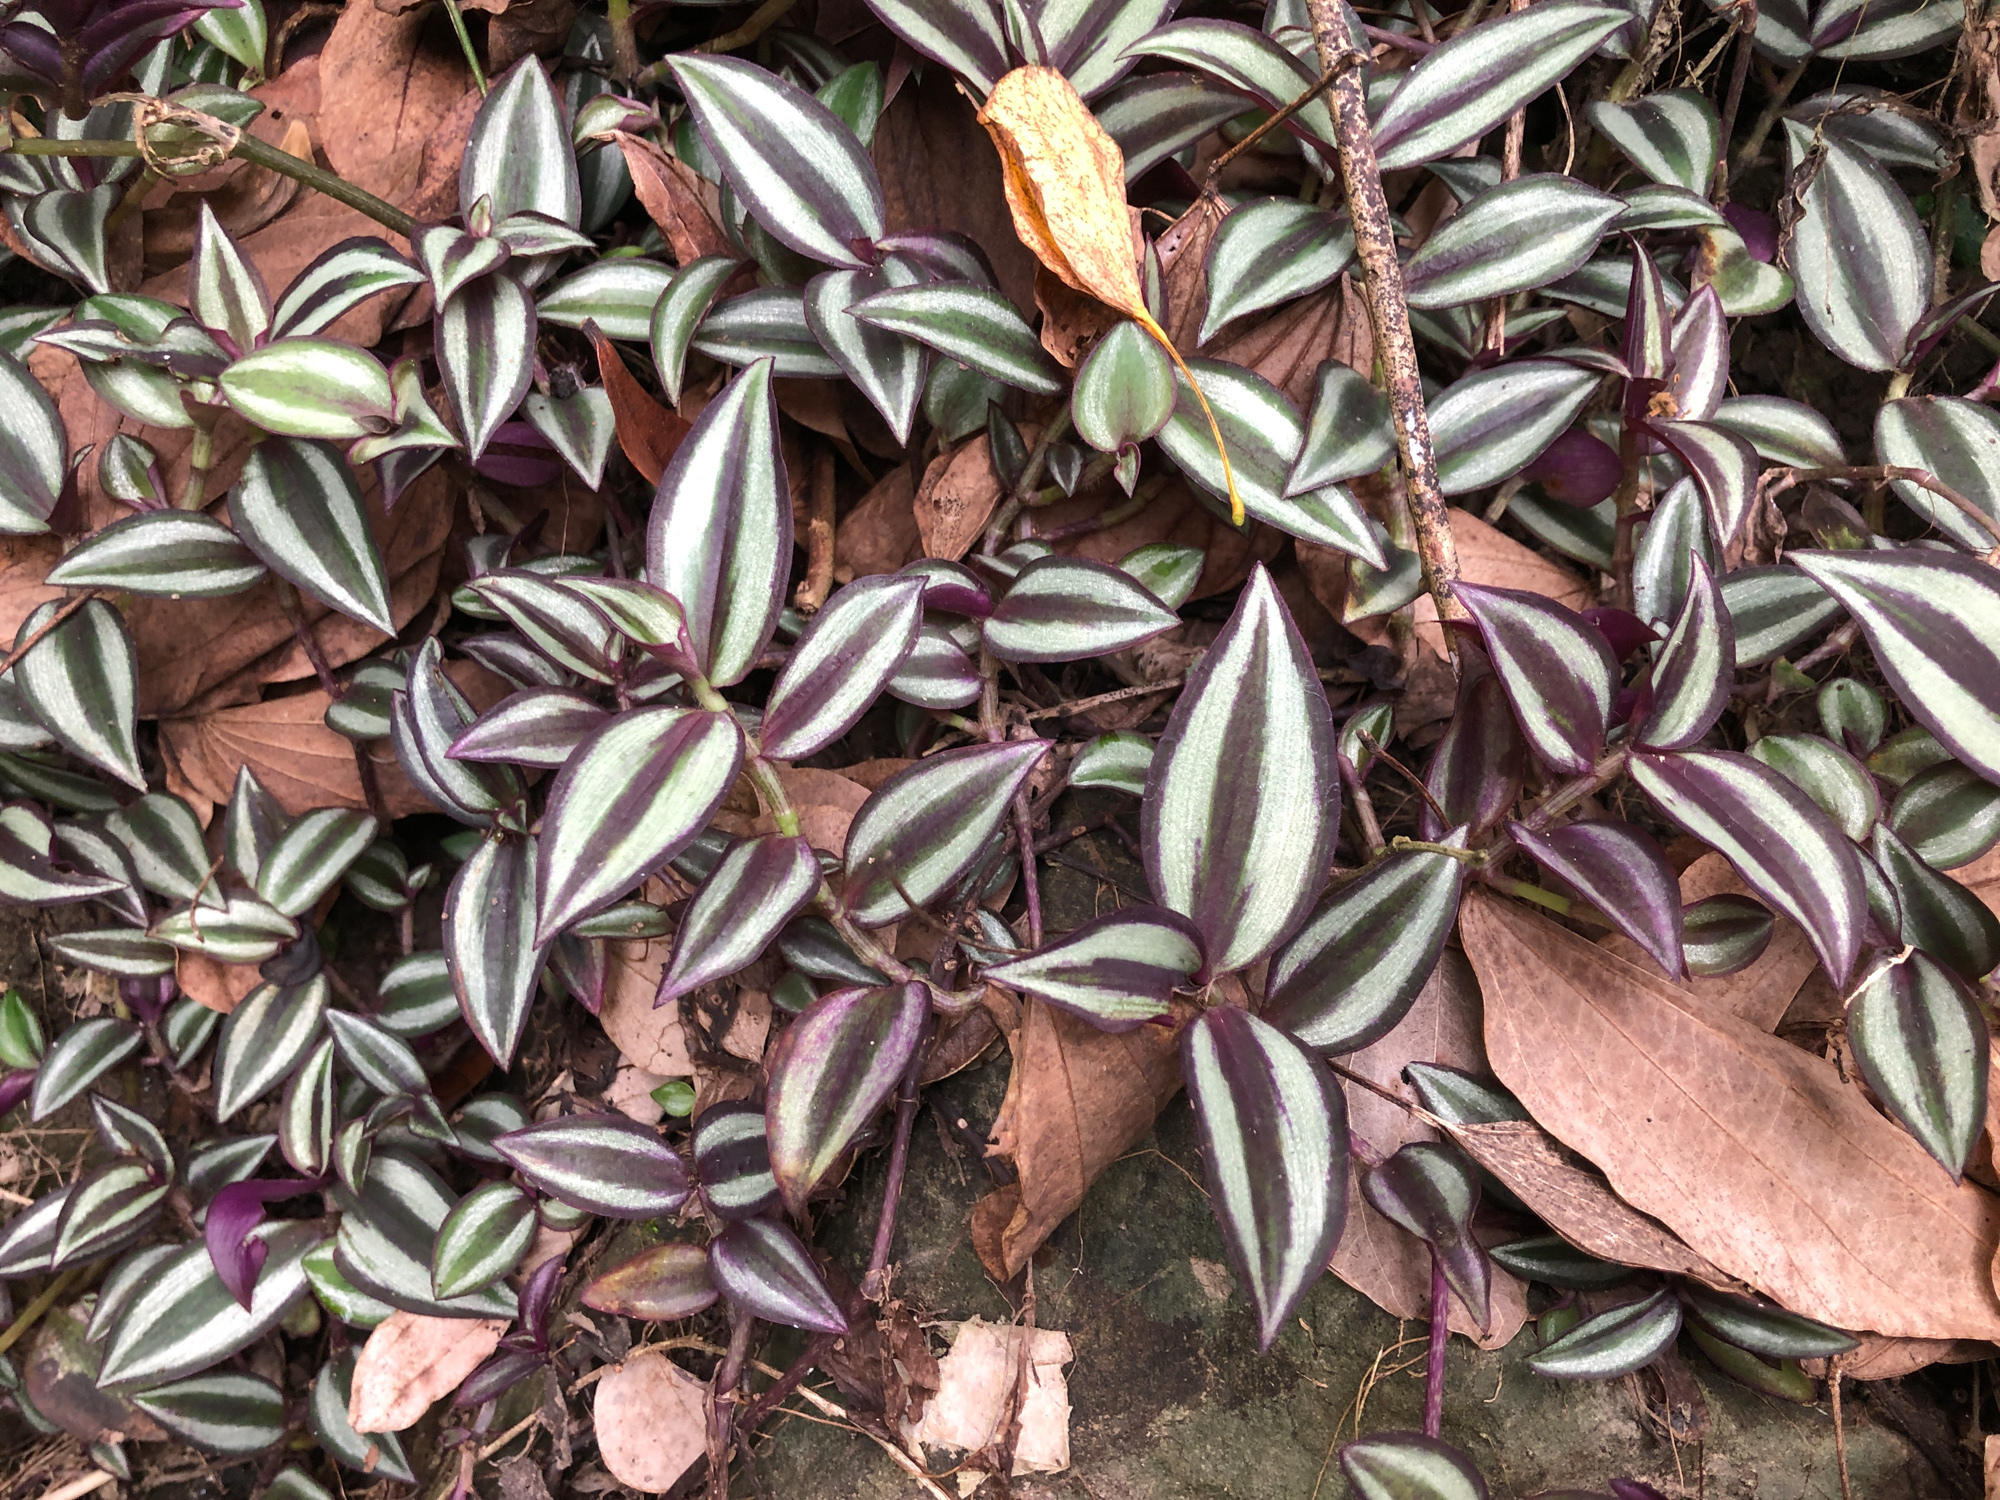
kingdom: Plantae
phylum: Tracheophyta
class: Liliopsida
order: Commelinales
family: Commelinaceae
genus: Tradescantia
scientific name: Tradescantia zebrina
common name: Inchplant
